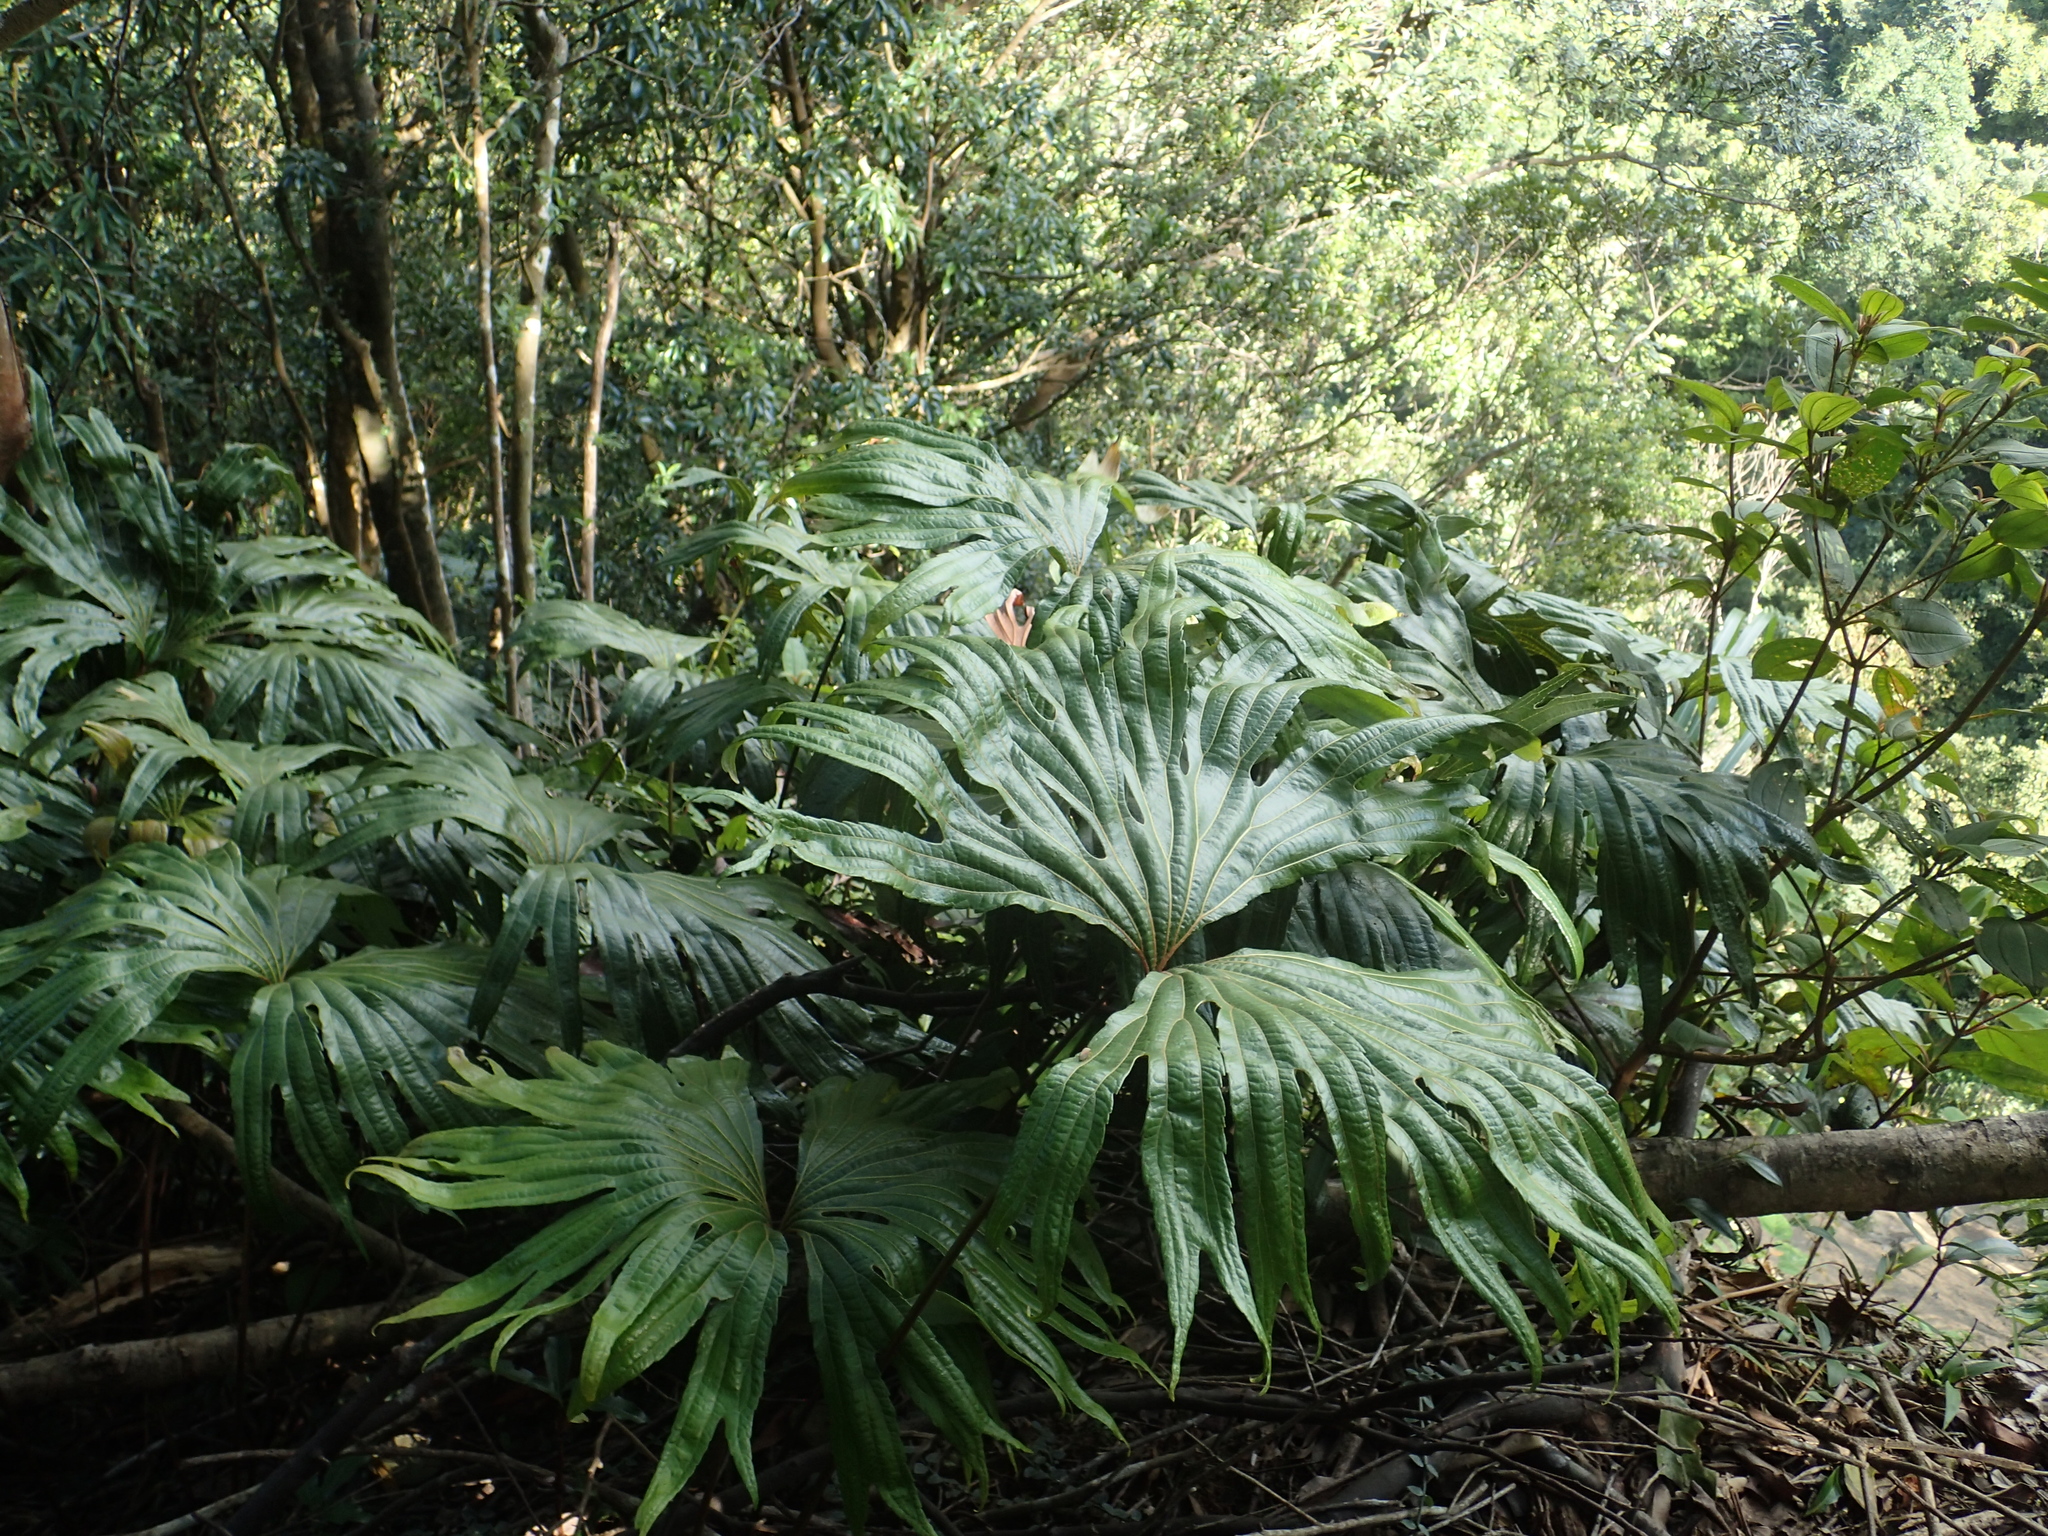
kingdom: Plantae
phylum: Tracheophyta
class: Polypodiopsida
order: Gleicheniales
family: Dipteridaceae
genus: Dipteris
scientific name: Dipteris conjugata
